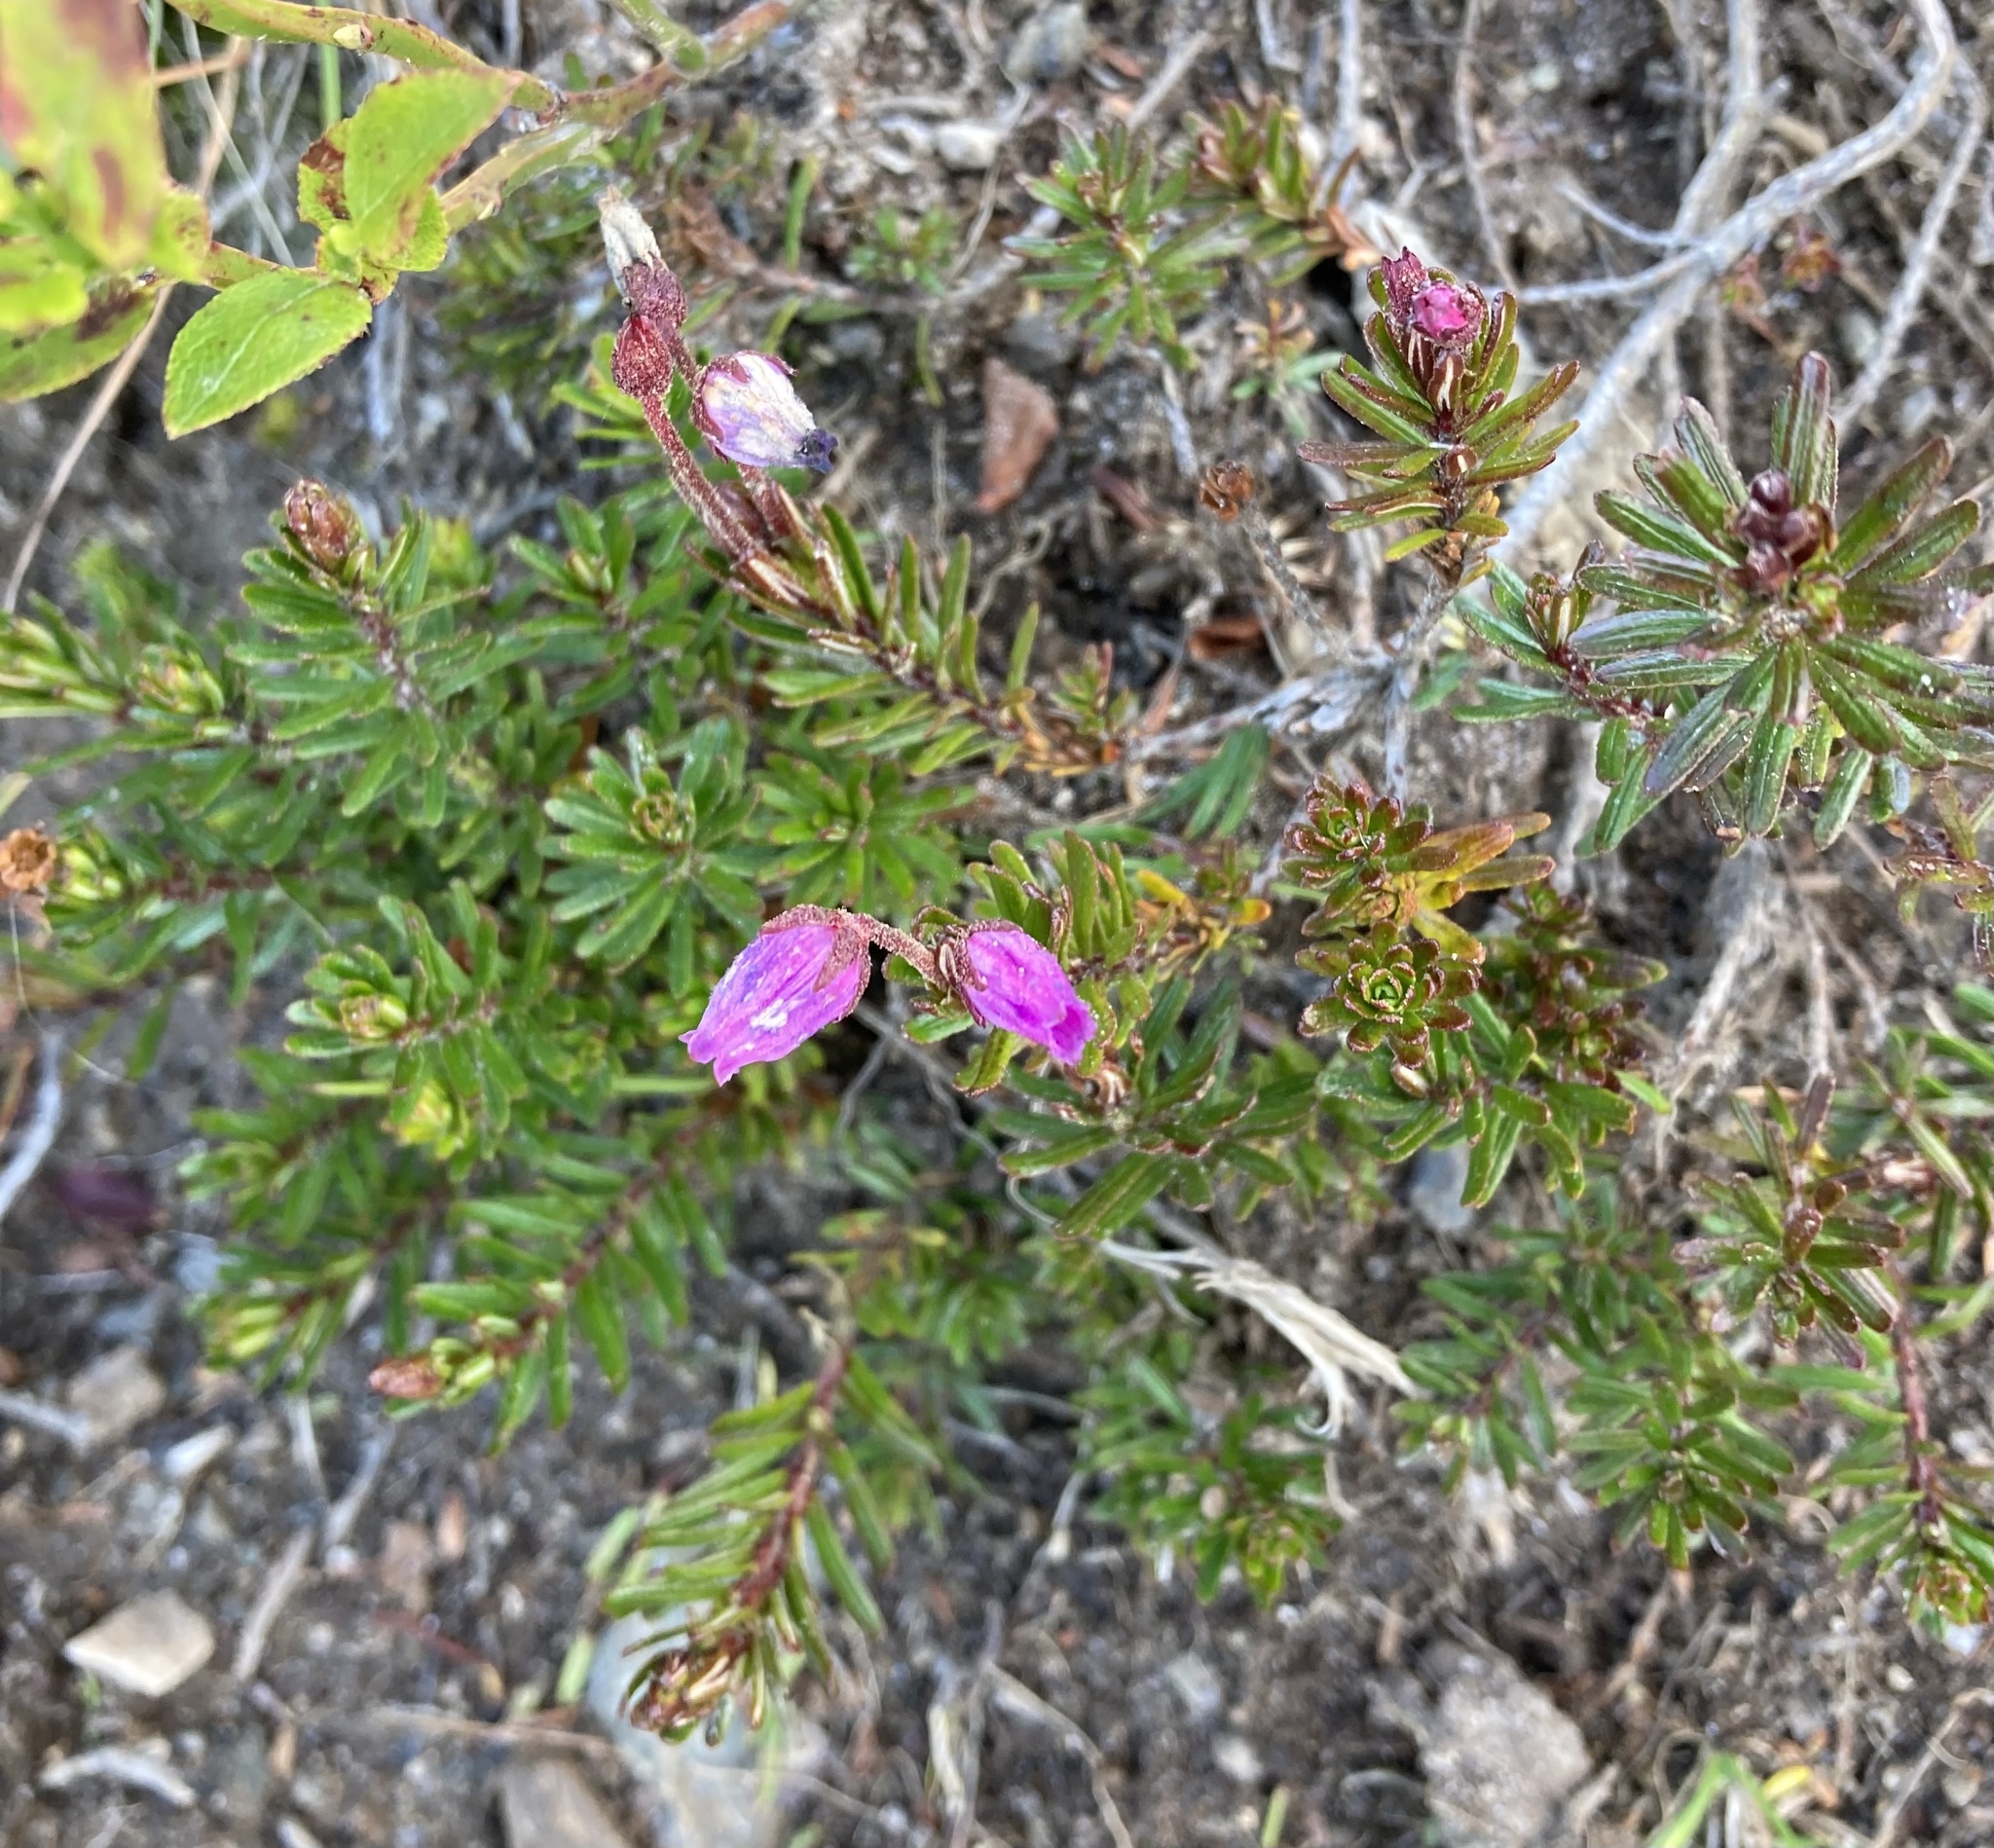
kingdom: Plantae
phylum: Tracheophyta
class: Magnoliopsida
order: Ericales
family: Ericaceae
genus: Phyllodoce
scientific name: Phyllodoce caerulea
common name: Blue heath
